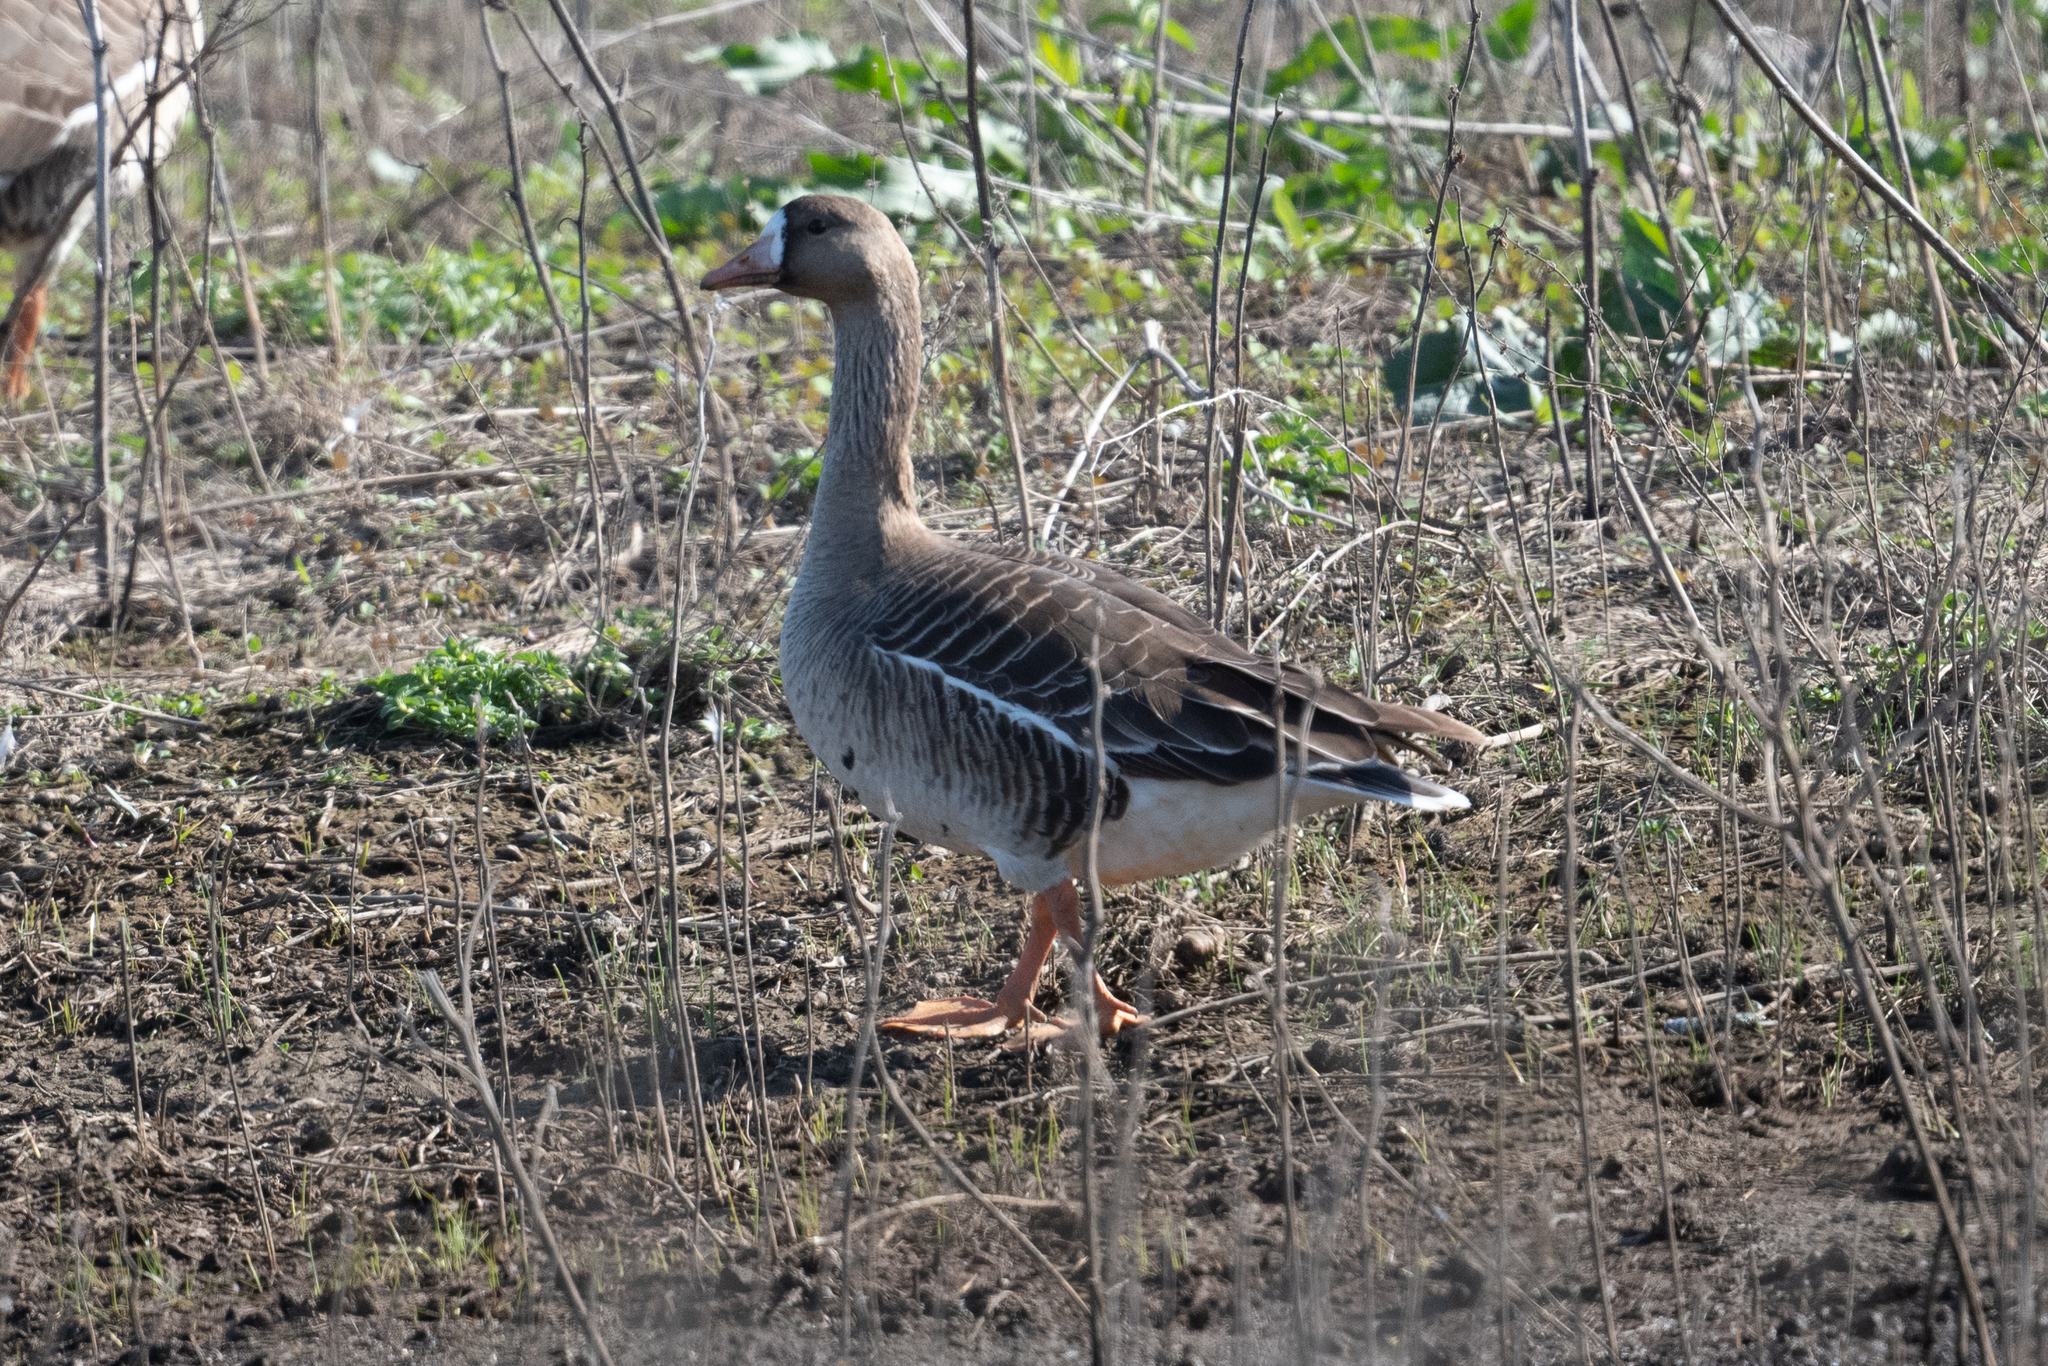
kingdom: Animalia
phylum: Chordata
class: Aves
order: Anseriformes
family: Anatidae
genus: Anser
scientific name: Anser albifrons
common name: Greater white-fronted goose
